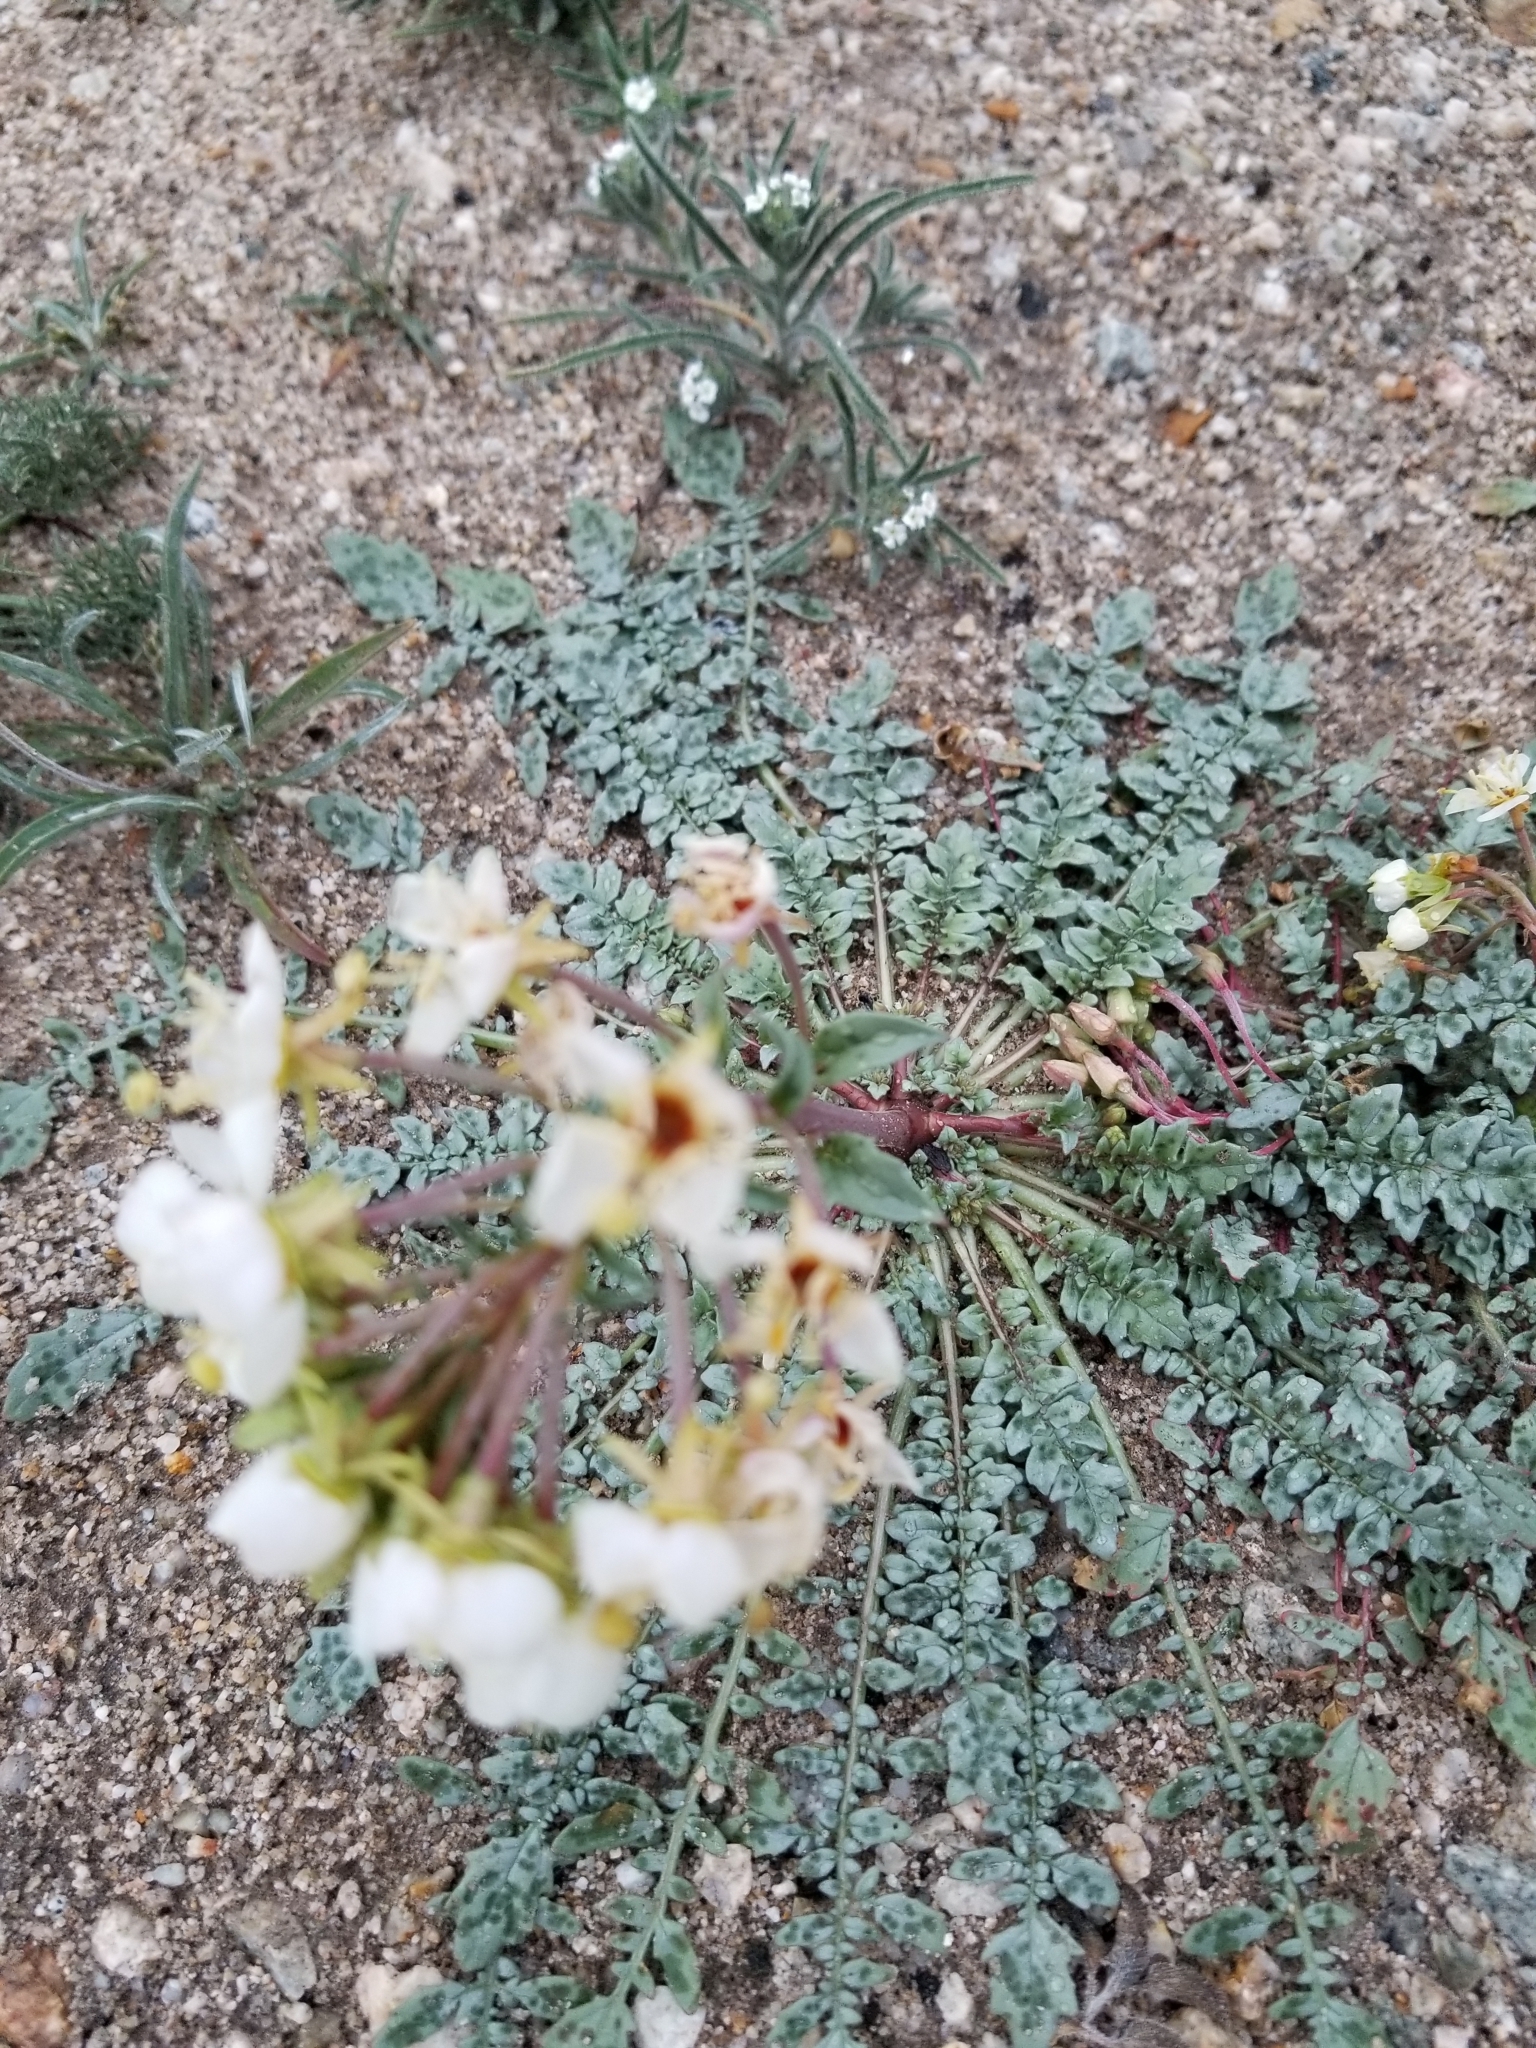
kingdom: Plantae
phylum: Tracheophyta
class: Magnoliopsida
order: Myrtales
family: Onagraceae
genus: Chylismia
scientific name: Chylismia claviformis
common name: Browneyes
